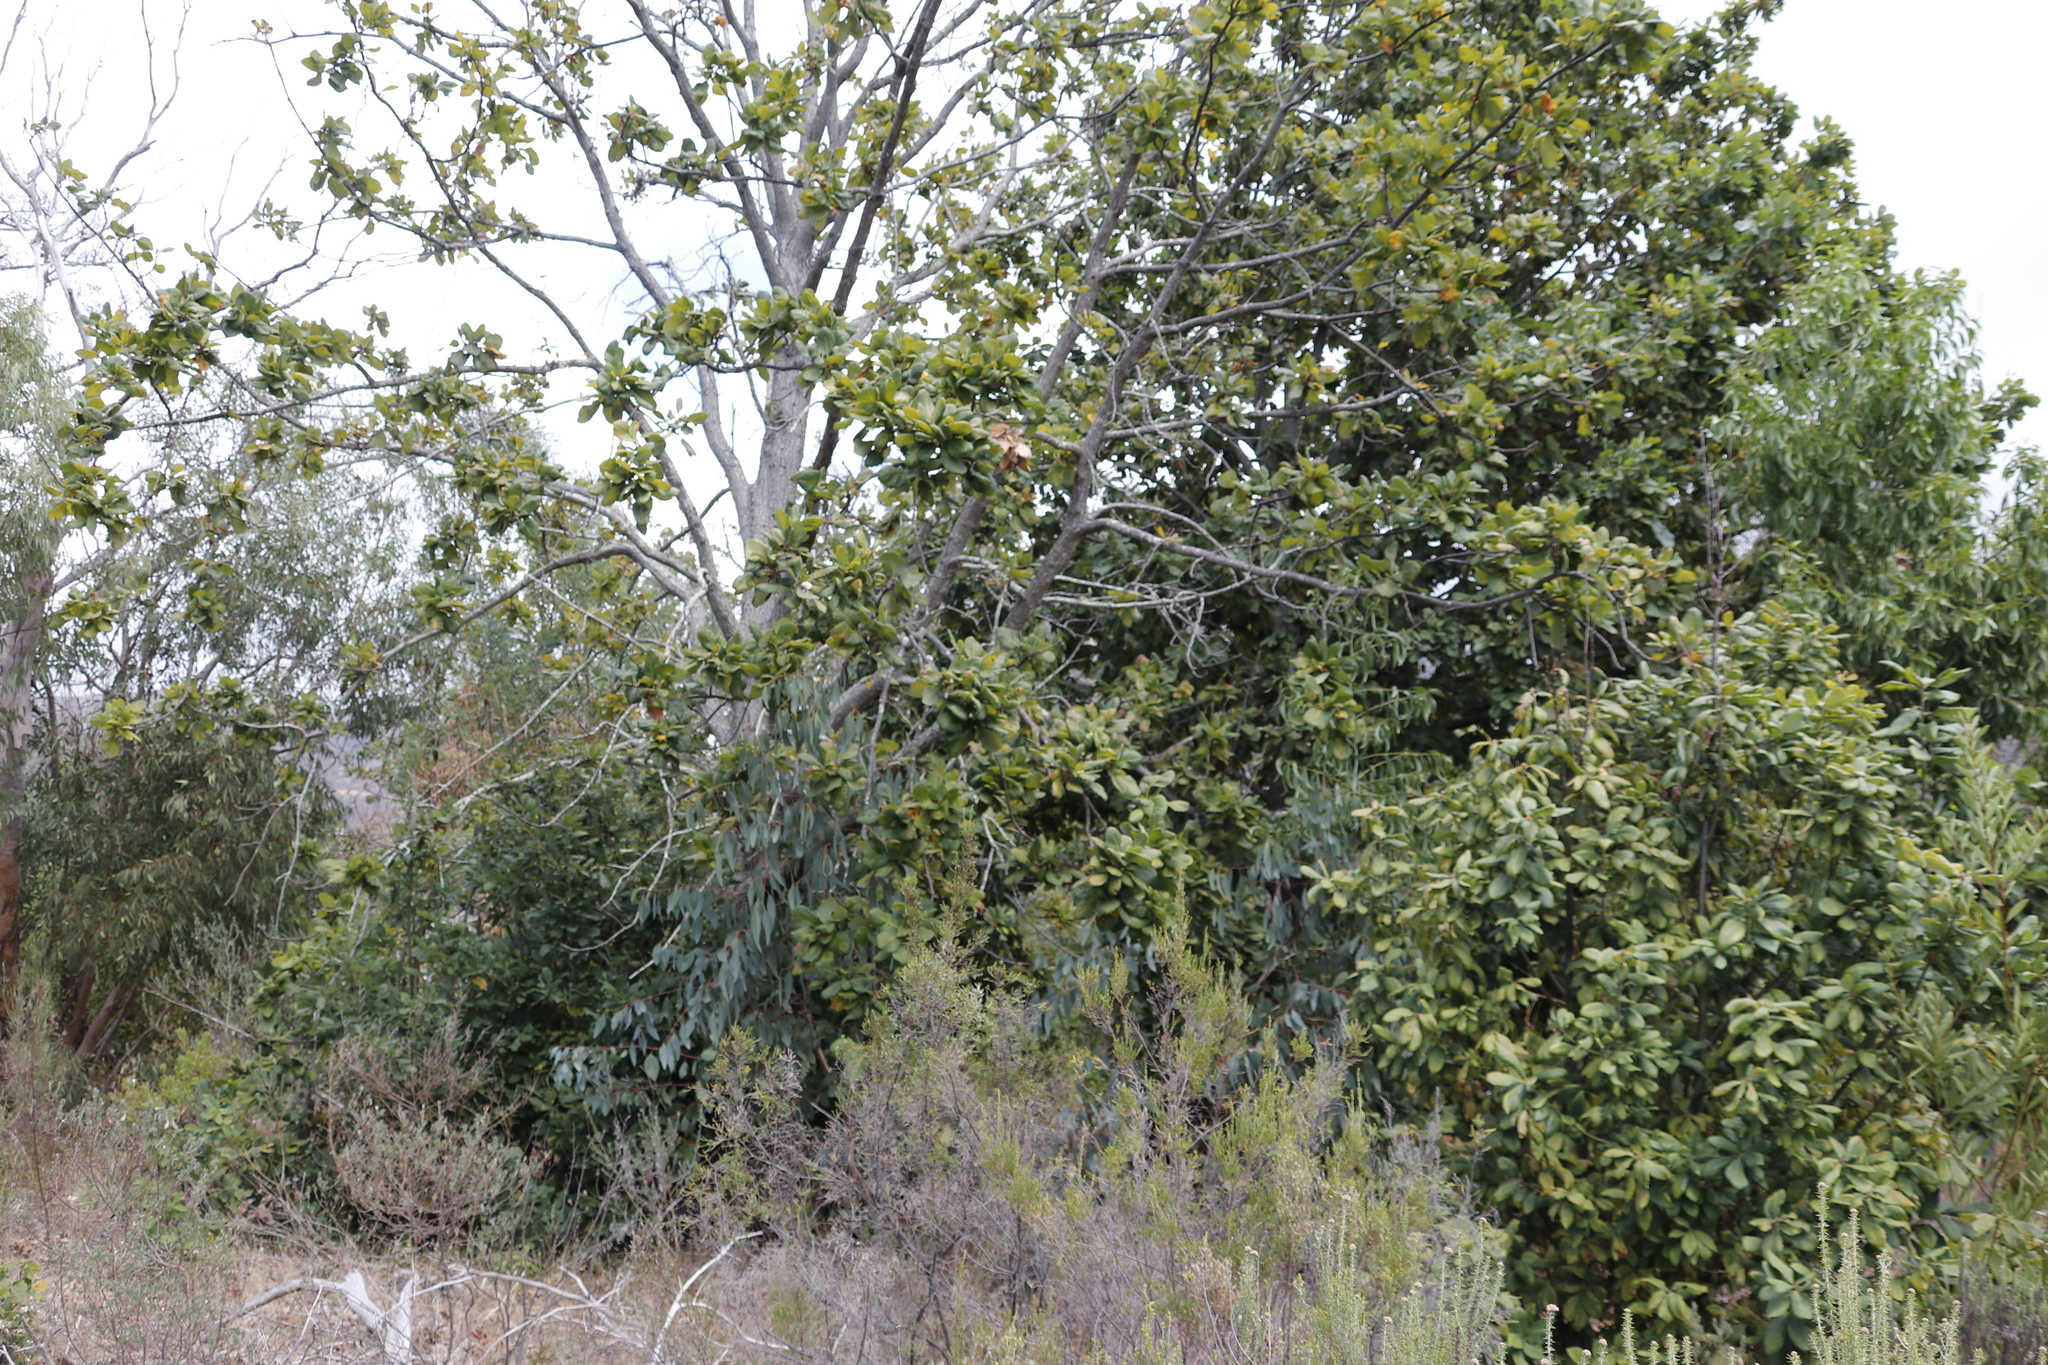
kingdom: Plantae
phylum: Tracheophyta
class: Magnoliopsida
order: Fagales
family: Fagaceae
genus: Quercus
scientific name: Quercus canariensis
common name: Algerian oak
